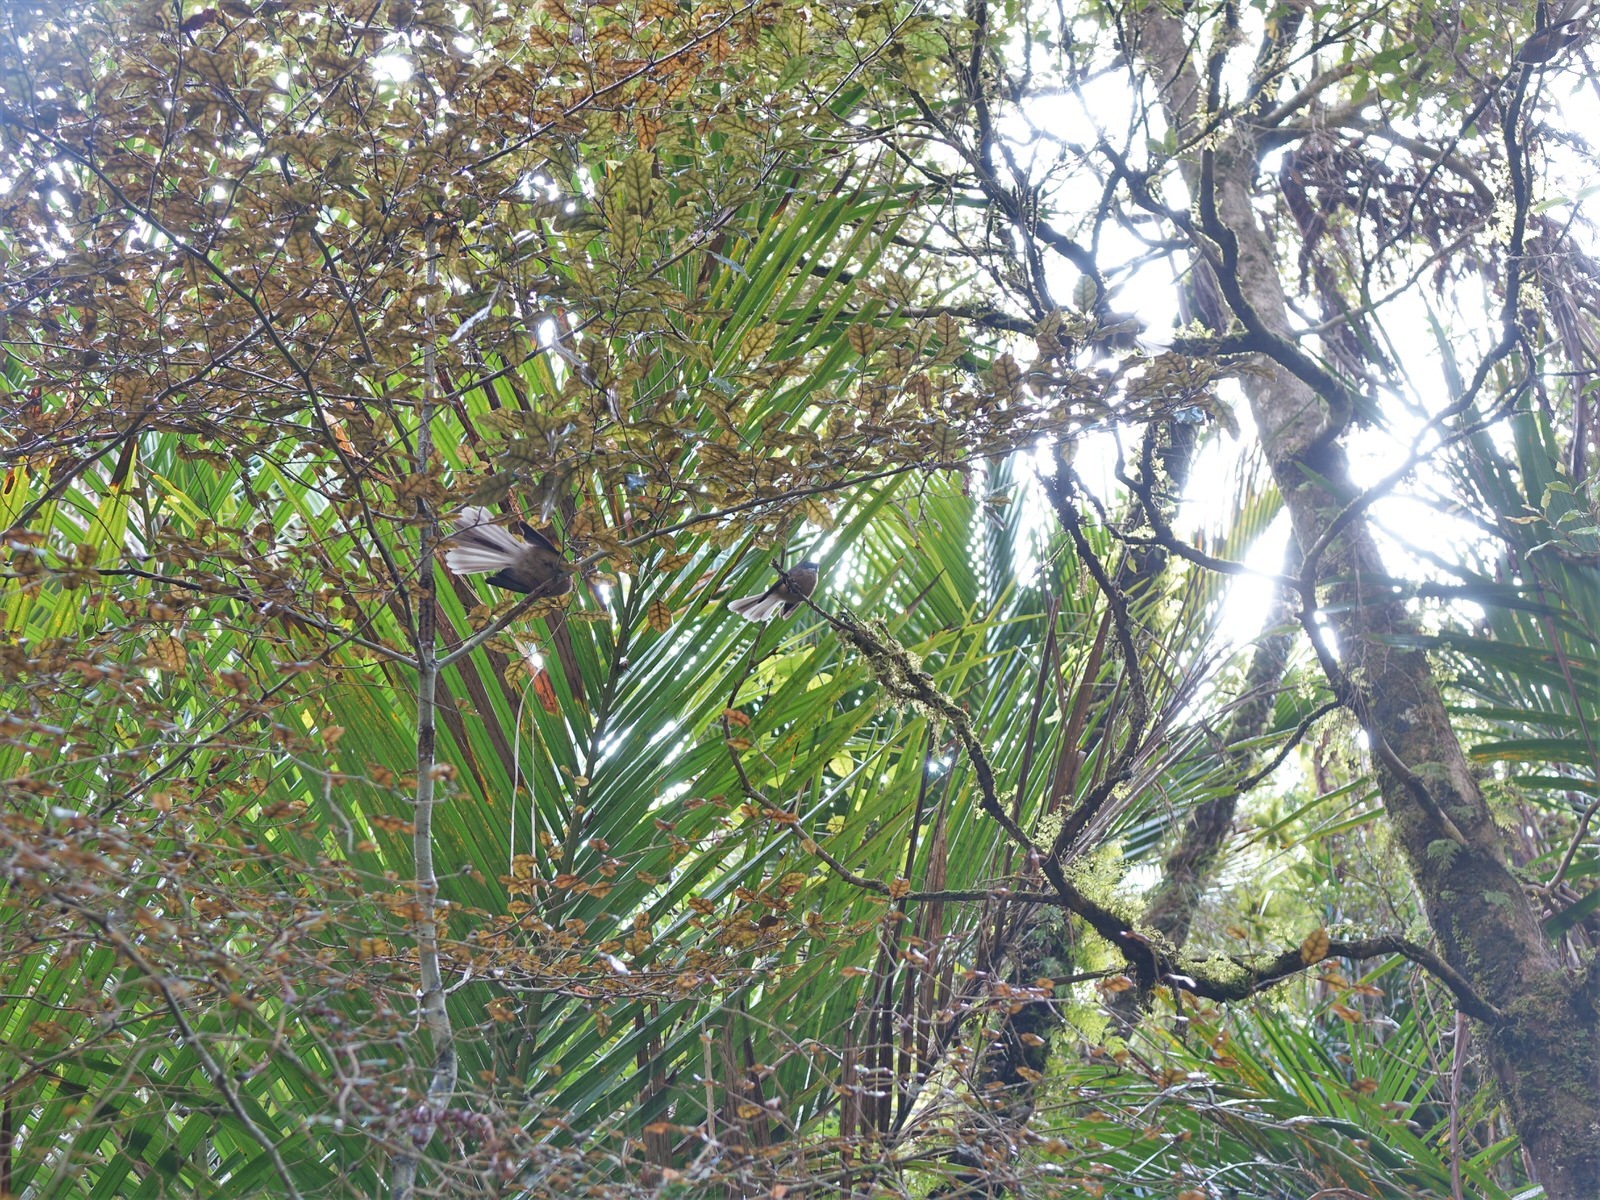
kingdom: Animalia
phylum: Chordata
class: Aves
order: Passeriformes
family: Rhipiduridae
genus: Rhipidura
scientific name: Rhipidura fuliginosa
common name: New zealand fantail
